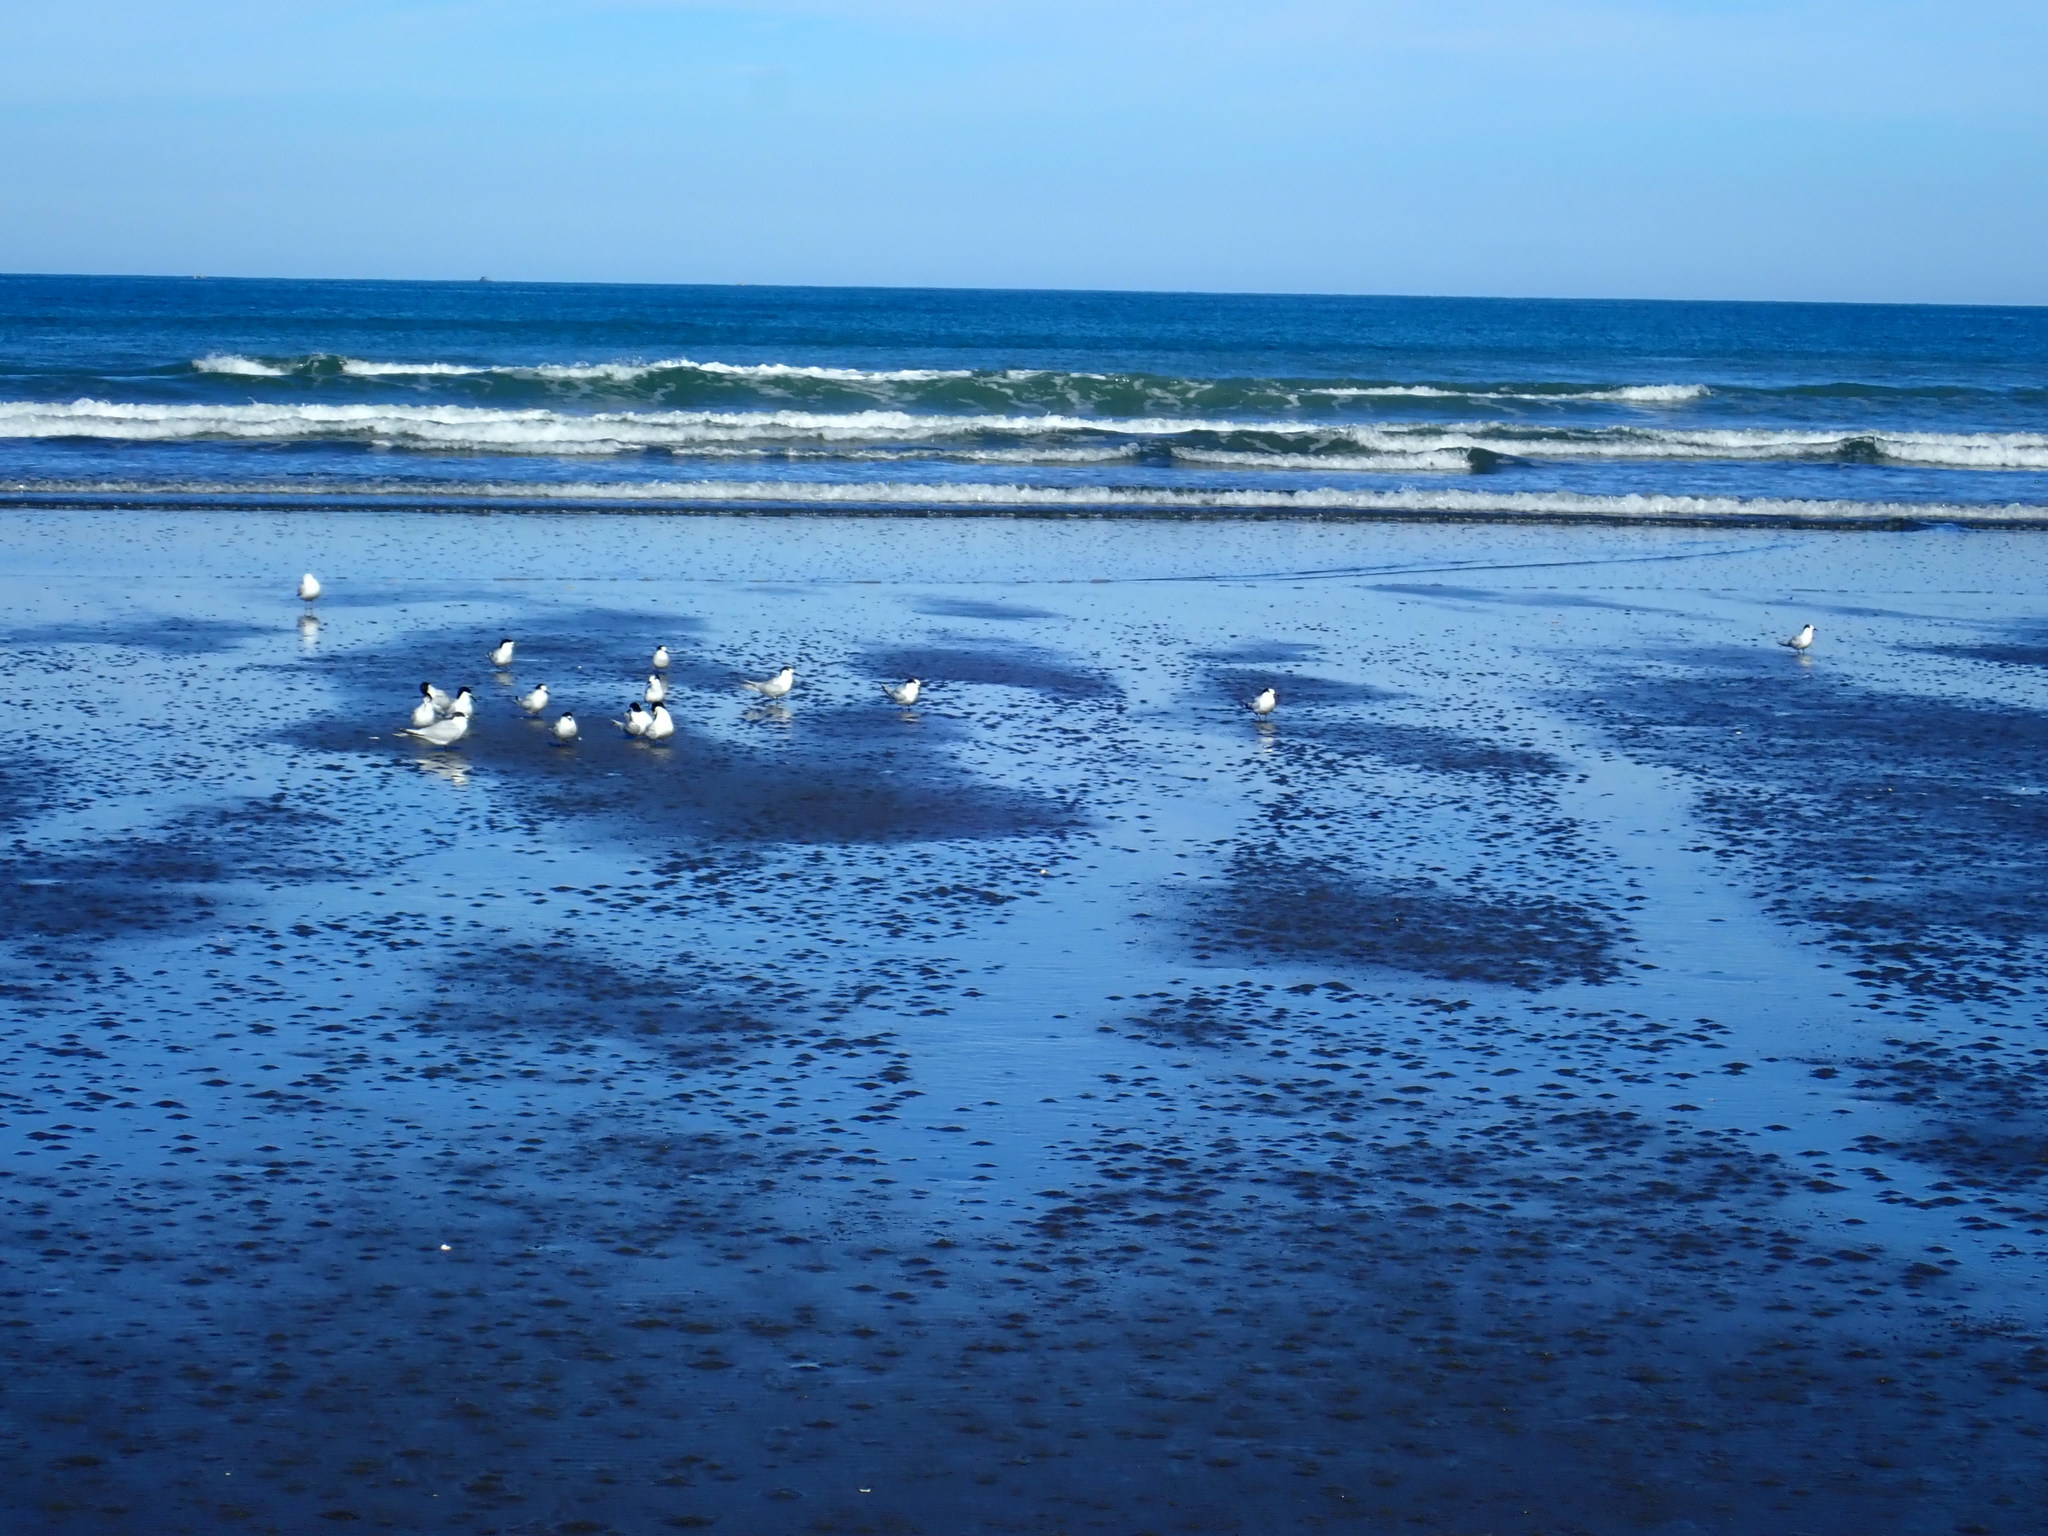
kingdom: Animalia
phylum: Chordata
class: Aves
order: Charadriiformes
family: Laridae
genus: Sterna
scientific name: Sterna striata
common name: White-fronted tern
